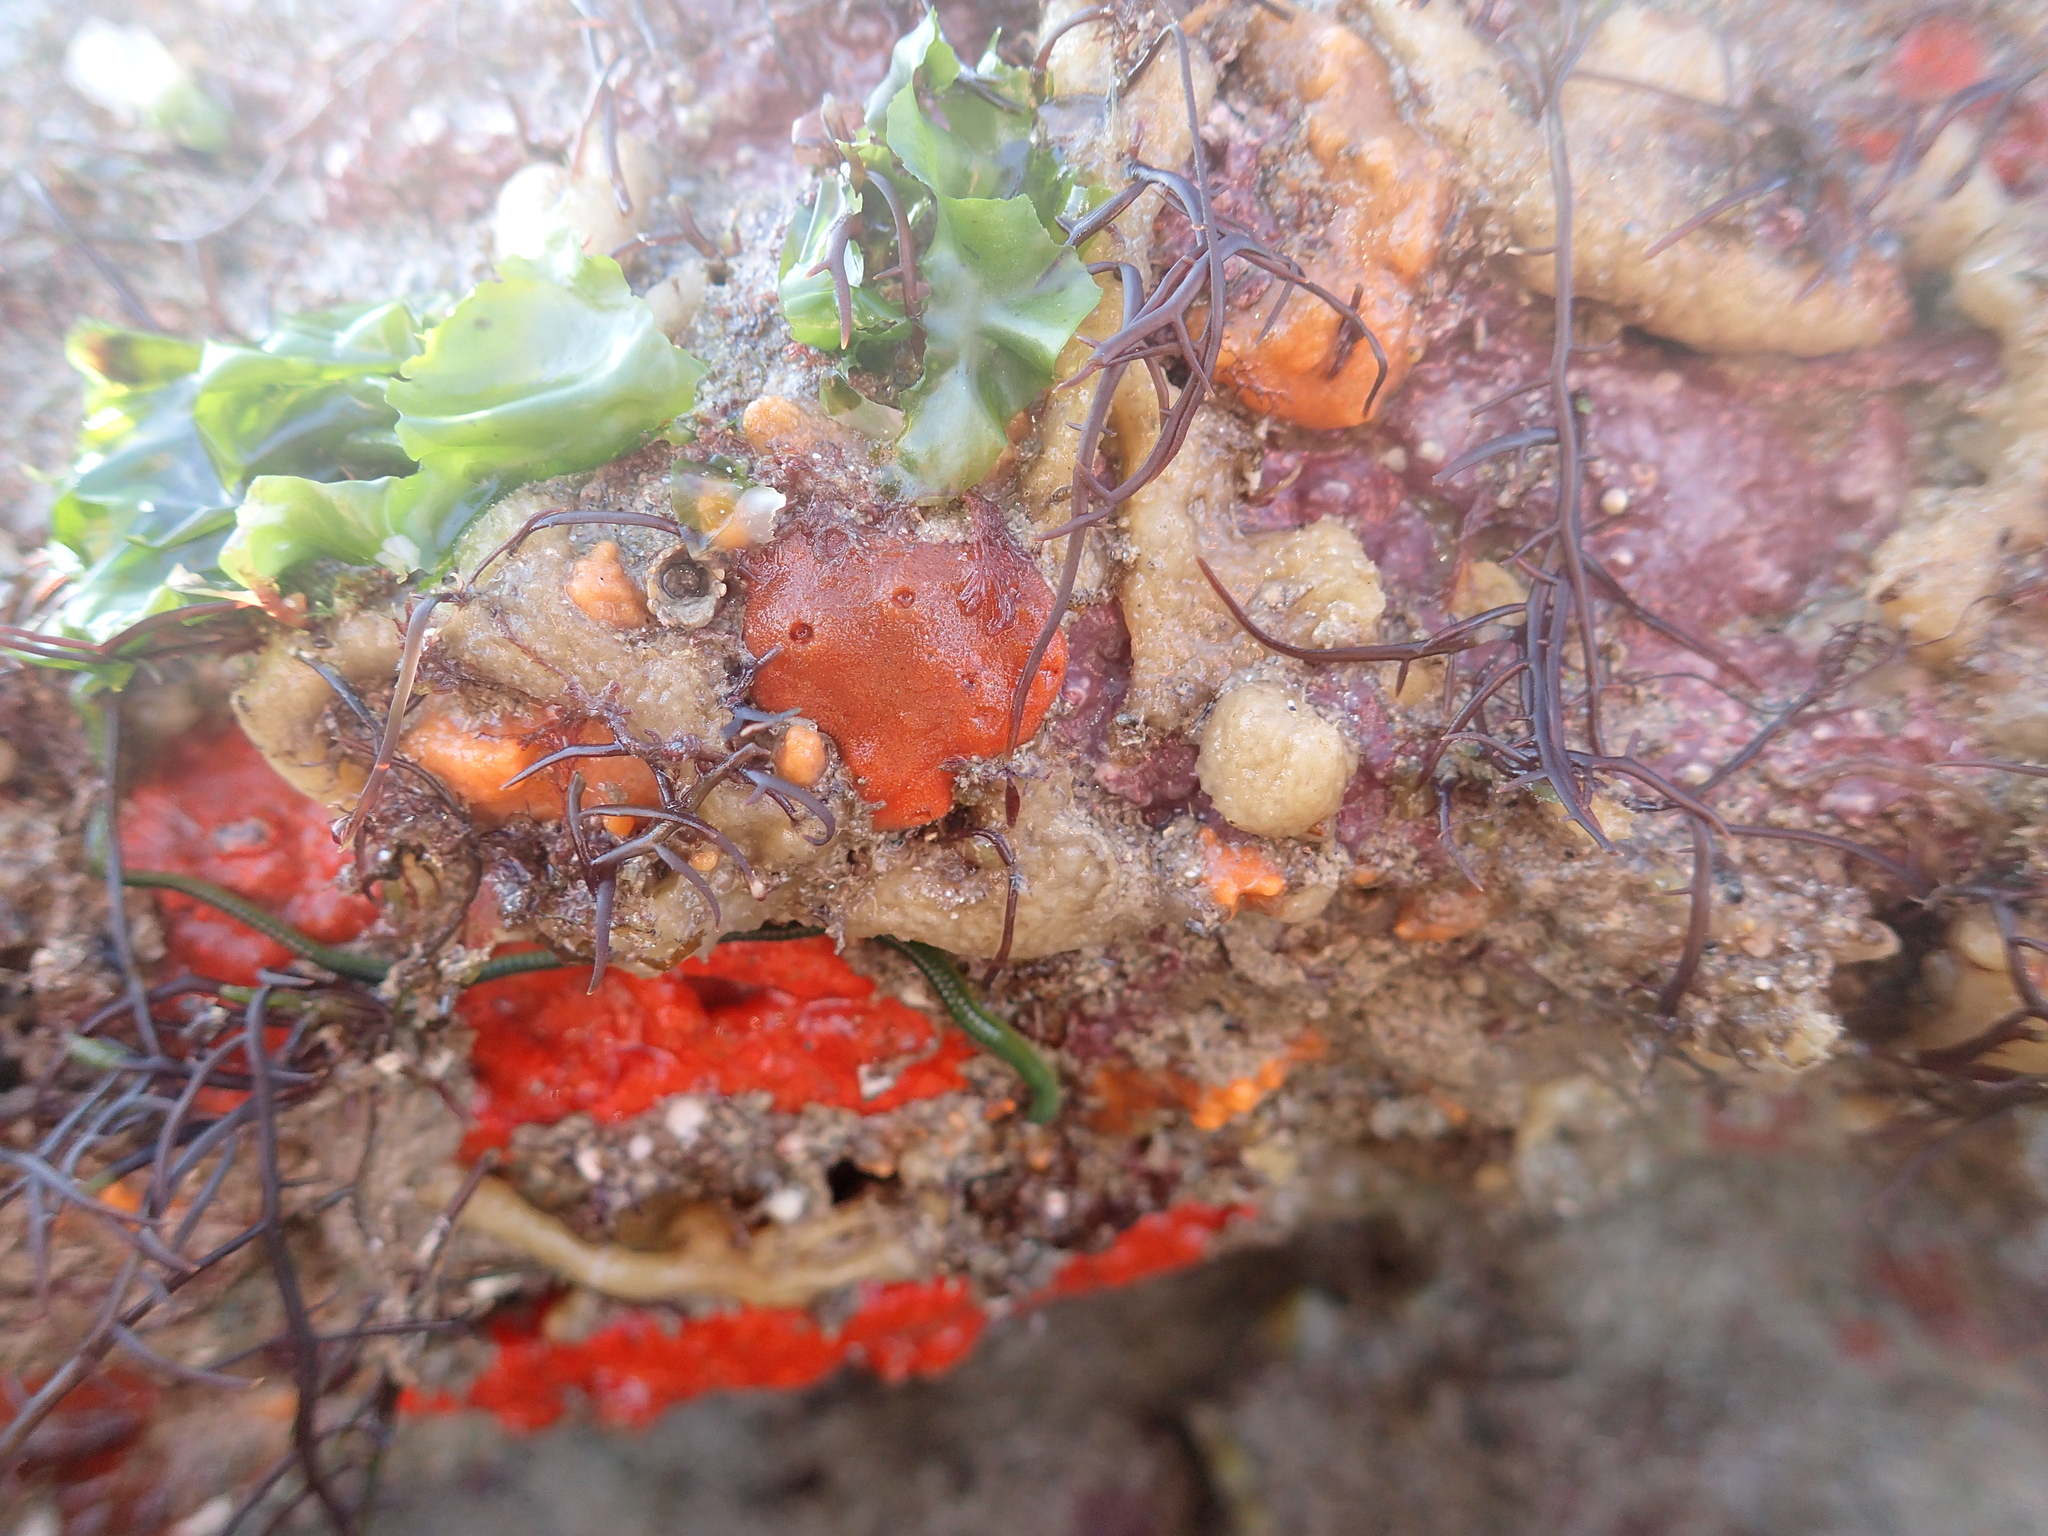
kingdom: Animalia
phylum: Porifera
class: Demospongiae
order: Poecilosclerida
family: Microcionidae
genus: Ophlitaspongia
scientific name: Ophlitaspongia papilla
